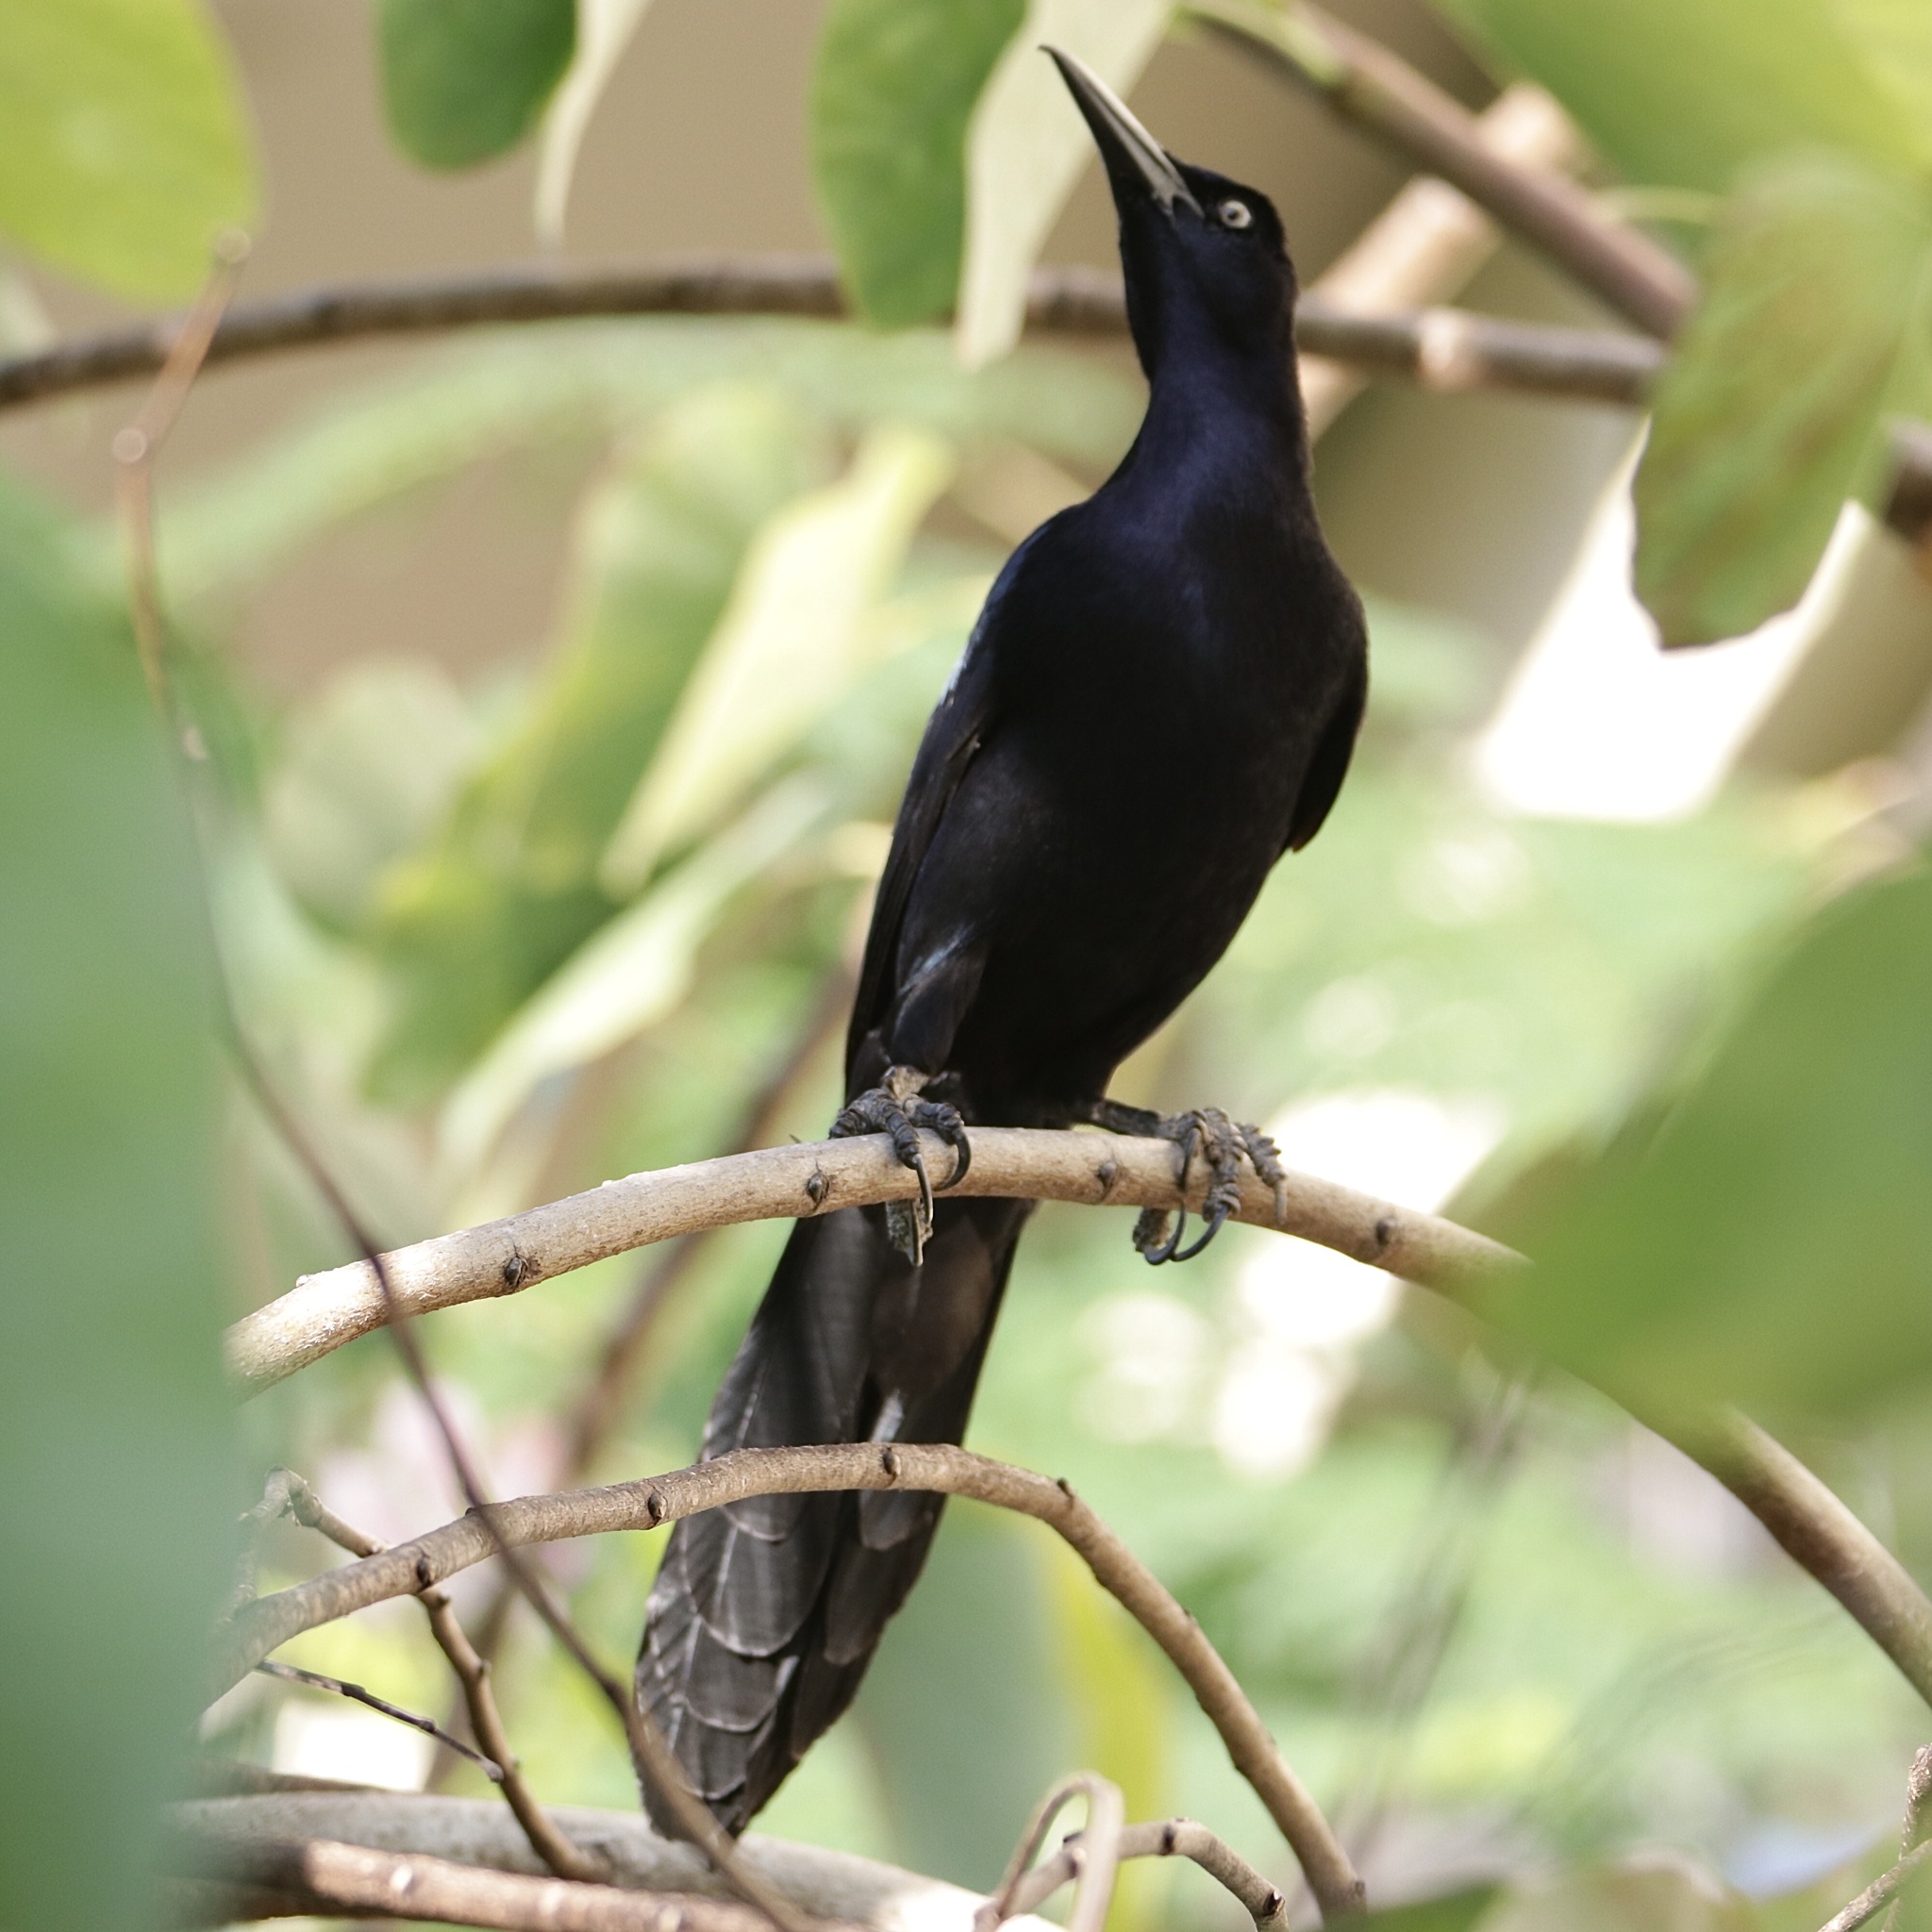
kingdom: Animalia
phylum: Chordata
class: Aves
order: Passeriformes
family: Icteridae
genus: Quiscalus
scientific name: Quiscalus mexicanus
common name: Great-tailed grackle
